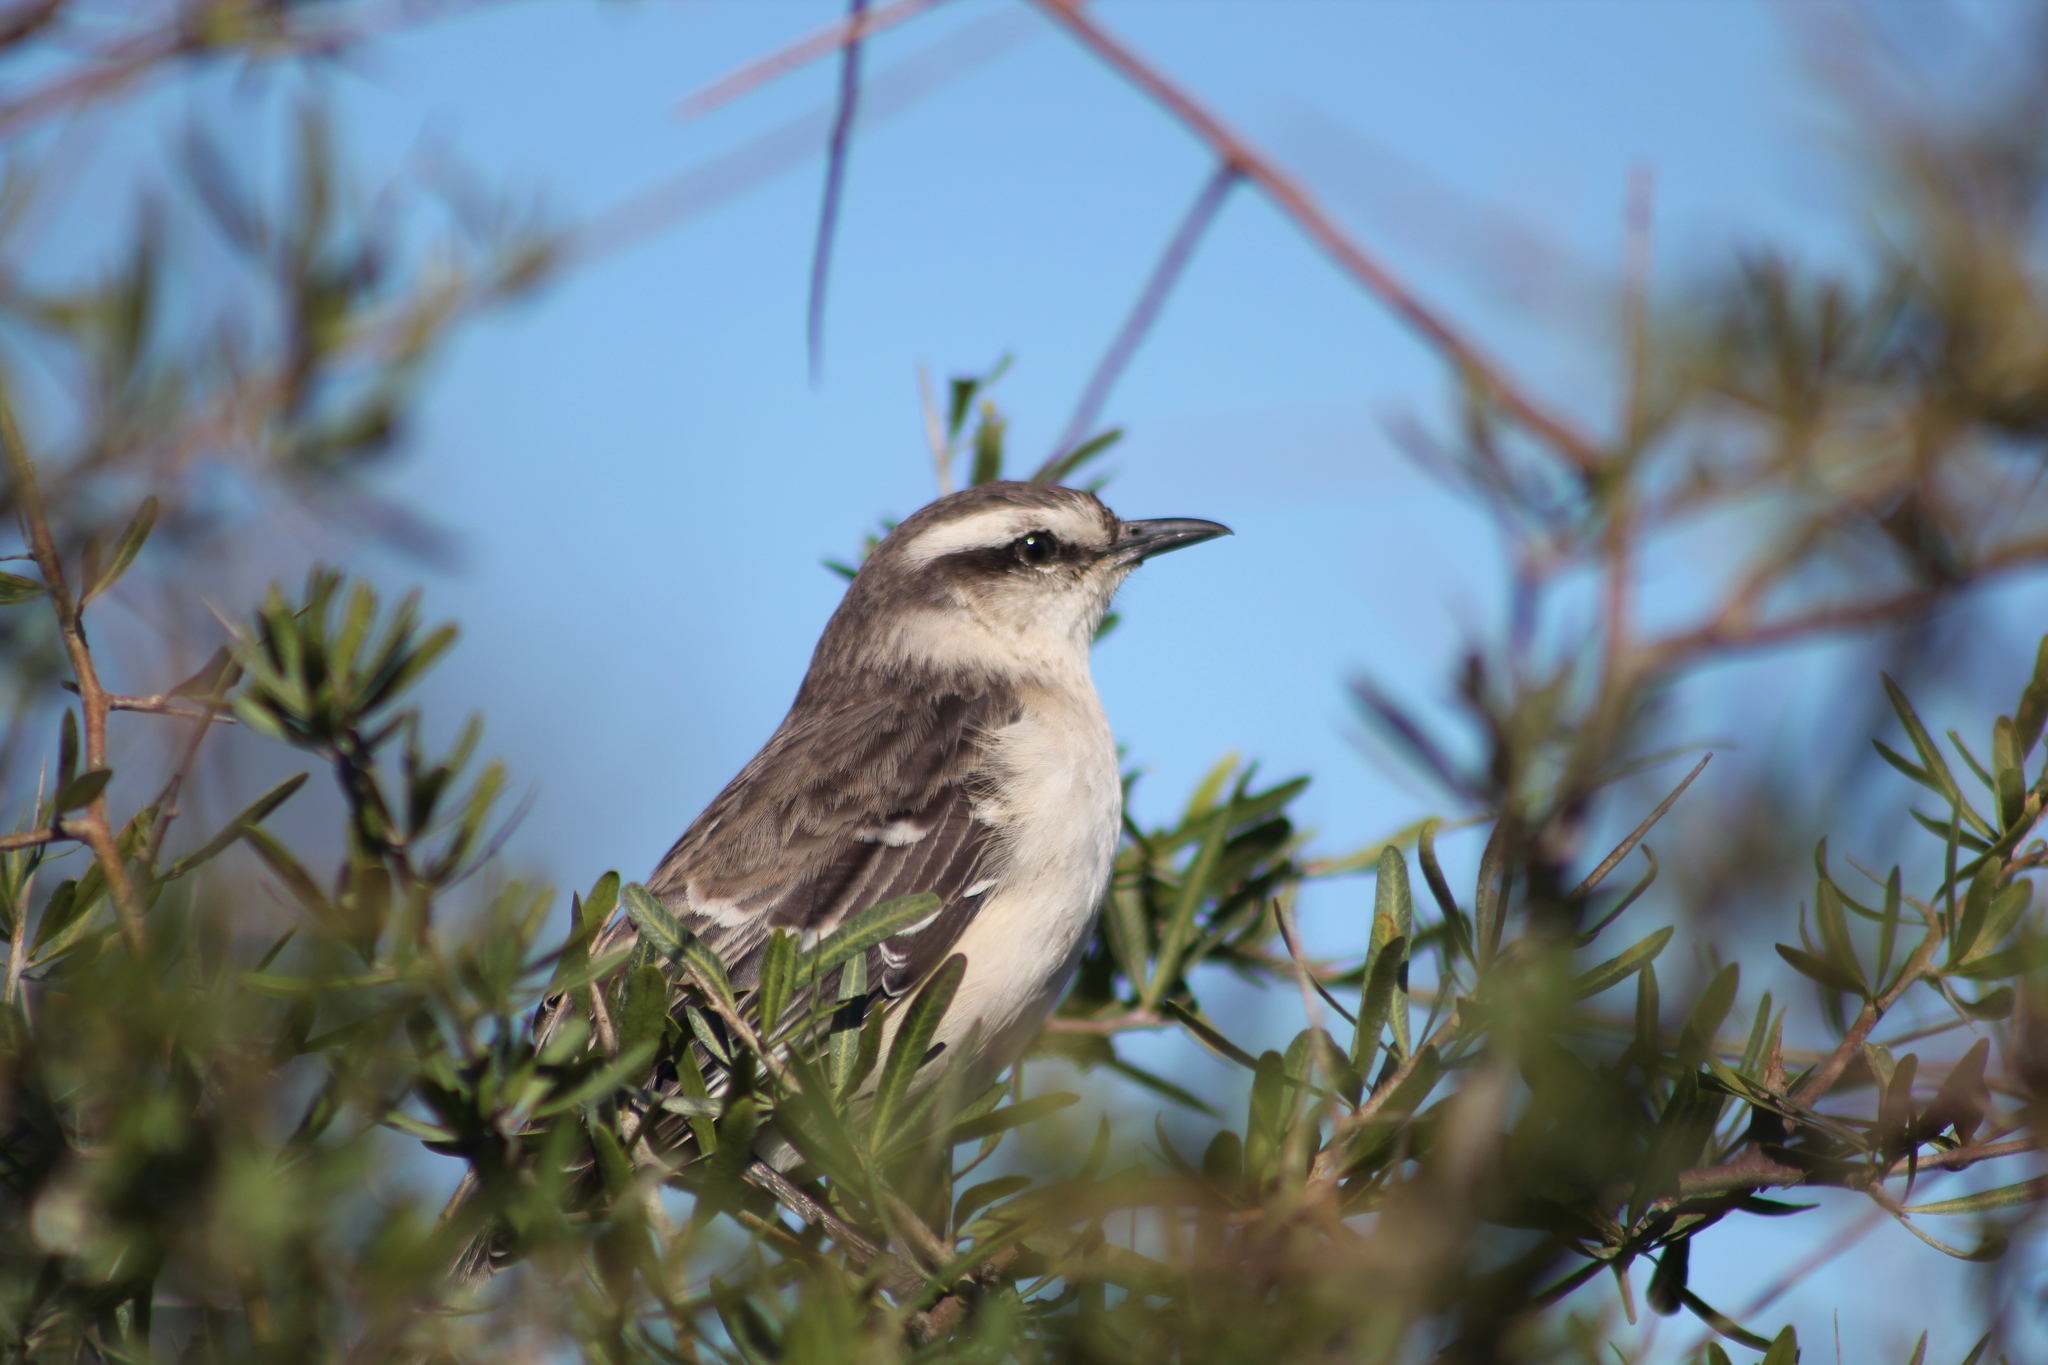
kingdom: Animalia
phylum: Chordata
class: Aves
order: Passeriformes
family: Mimidae
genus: Mimus
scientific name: Mimus saturninus
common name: Chalk-browed mockingbird
